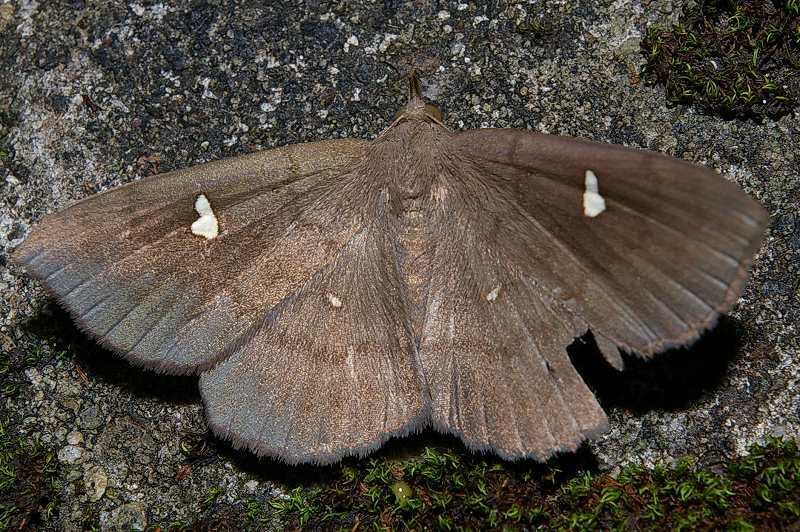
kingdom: Animalia
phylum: Arthropoda
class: Insecta
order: Lepidoptera
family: Erebidae
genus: Edessena
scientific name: Edessena hamada
